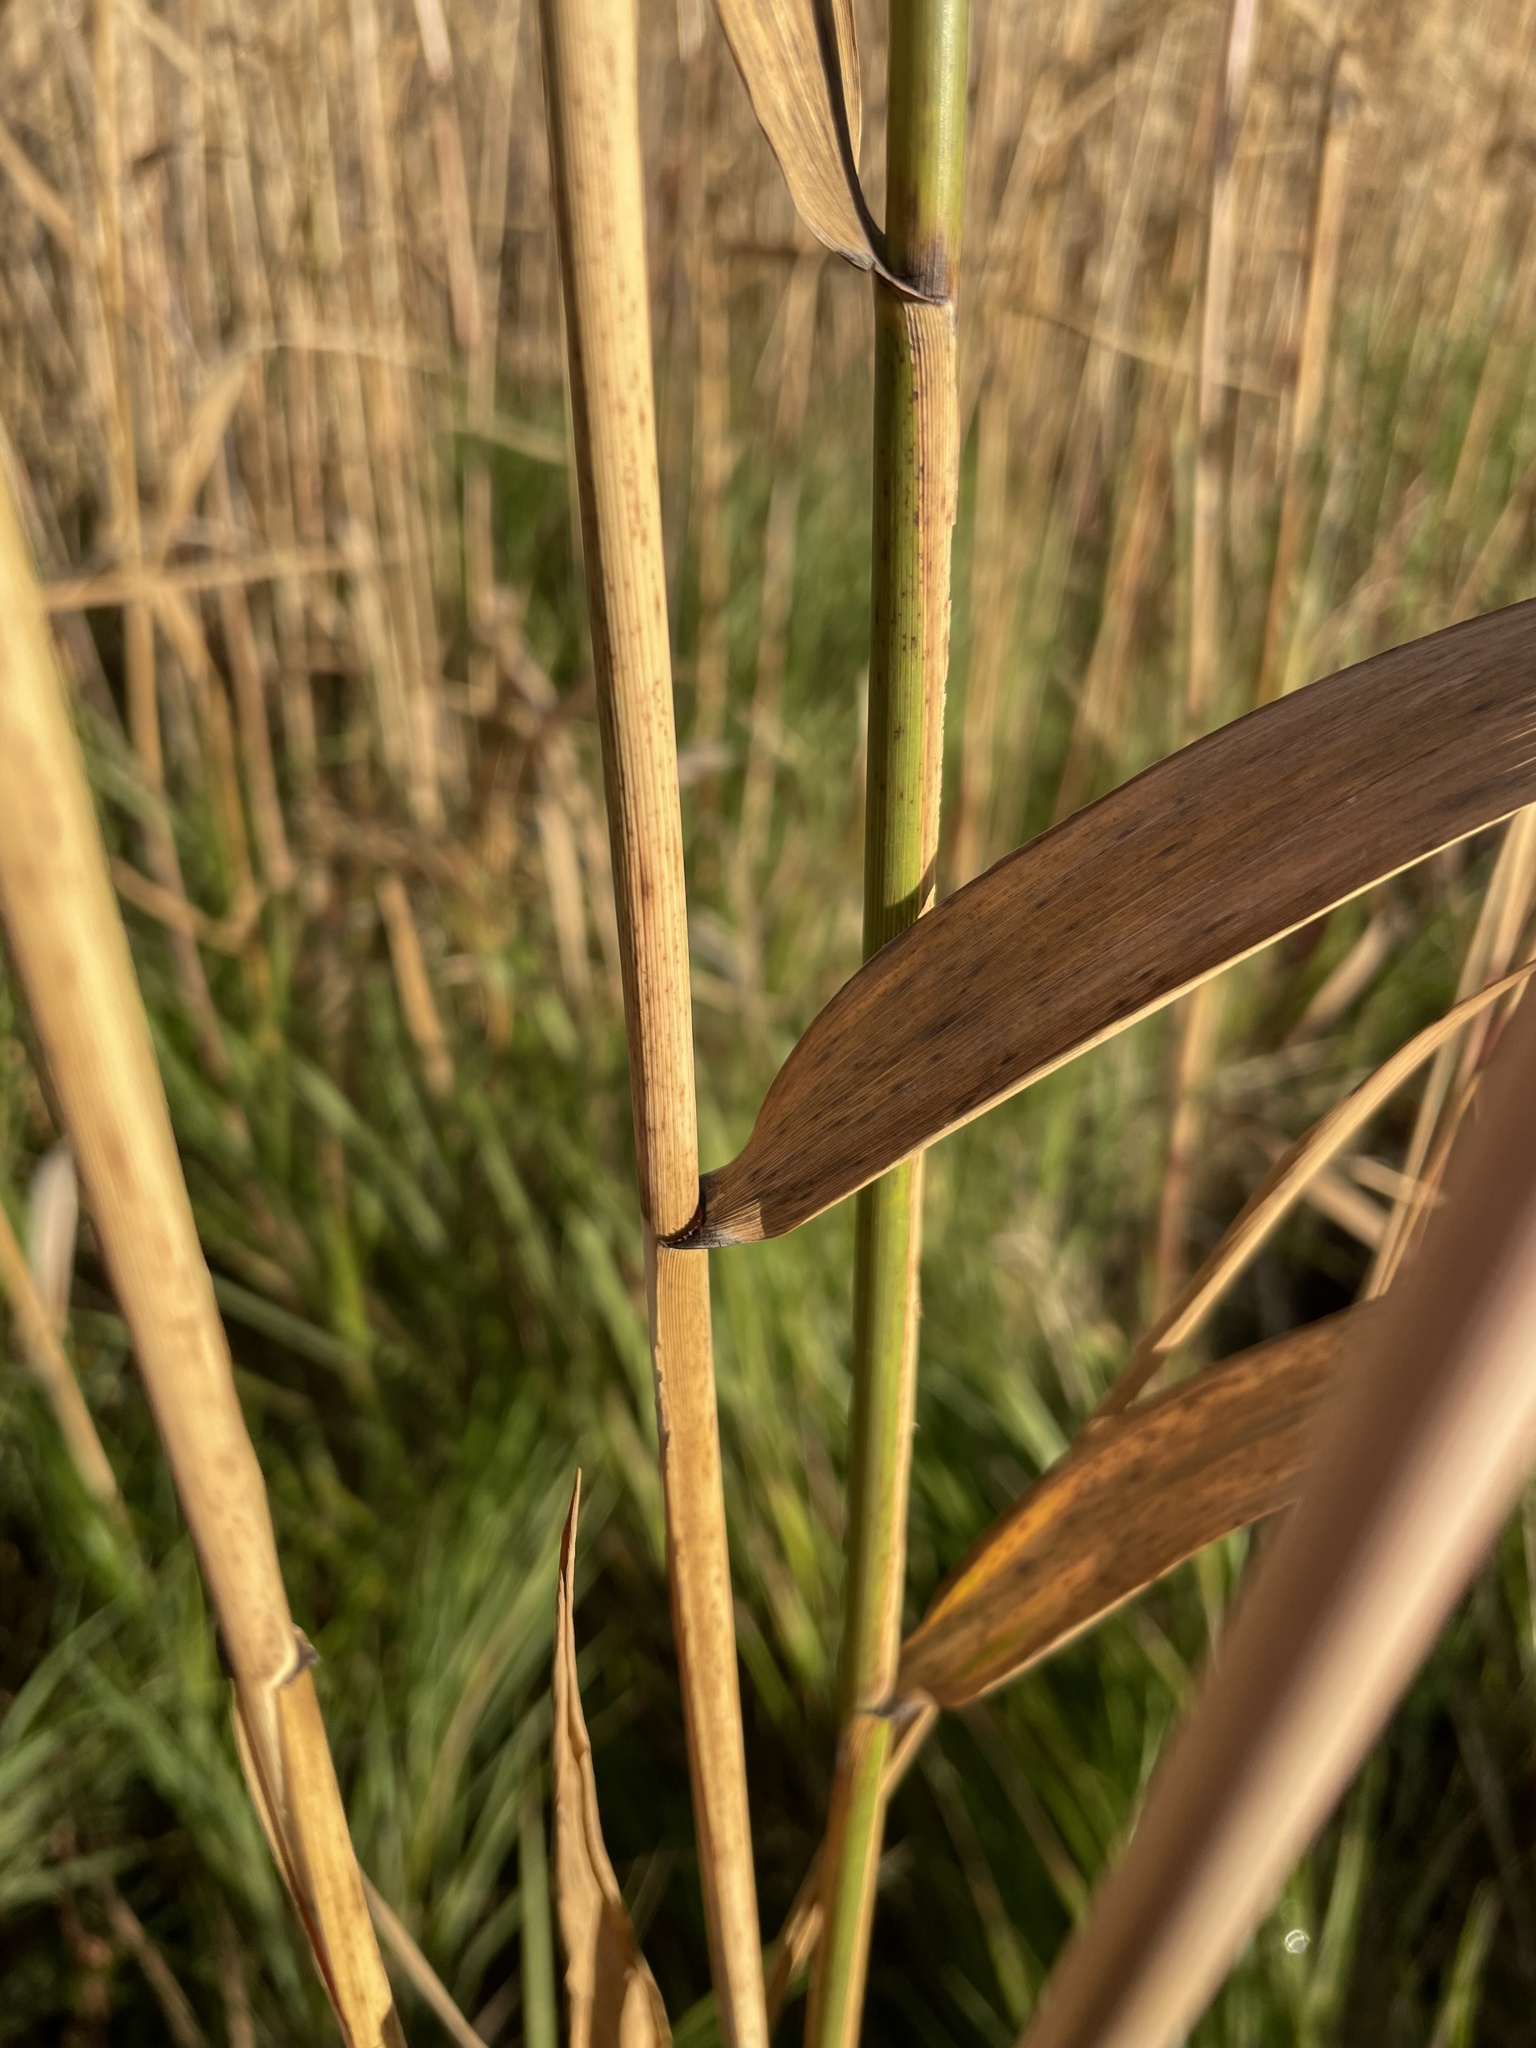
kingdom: Plantae
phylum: Tracheophyta
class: Liliopsida
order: Poales
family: Poaceae
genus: Phragmites
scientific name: Phragmites australis
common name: Common reed
